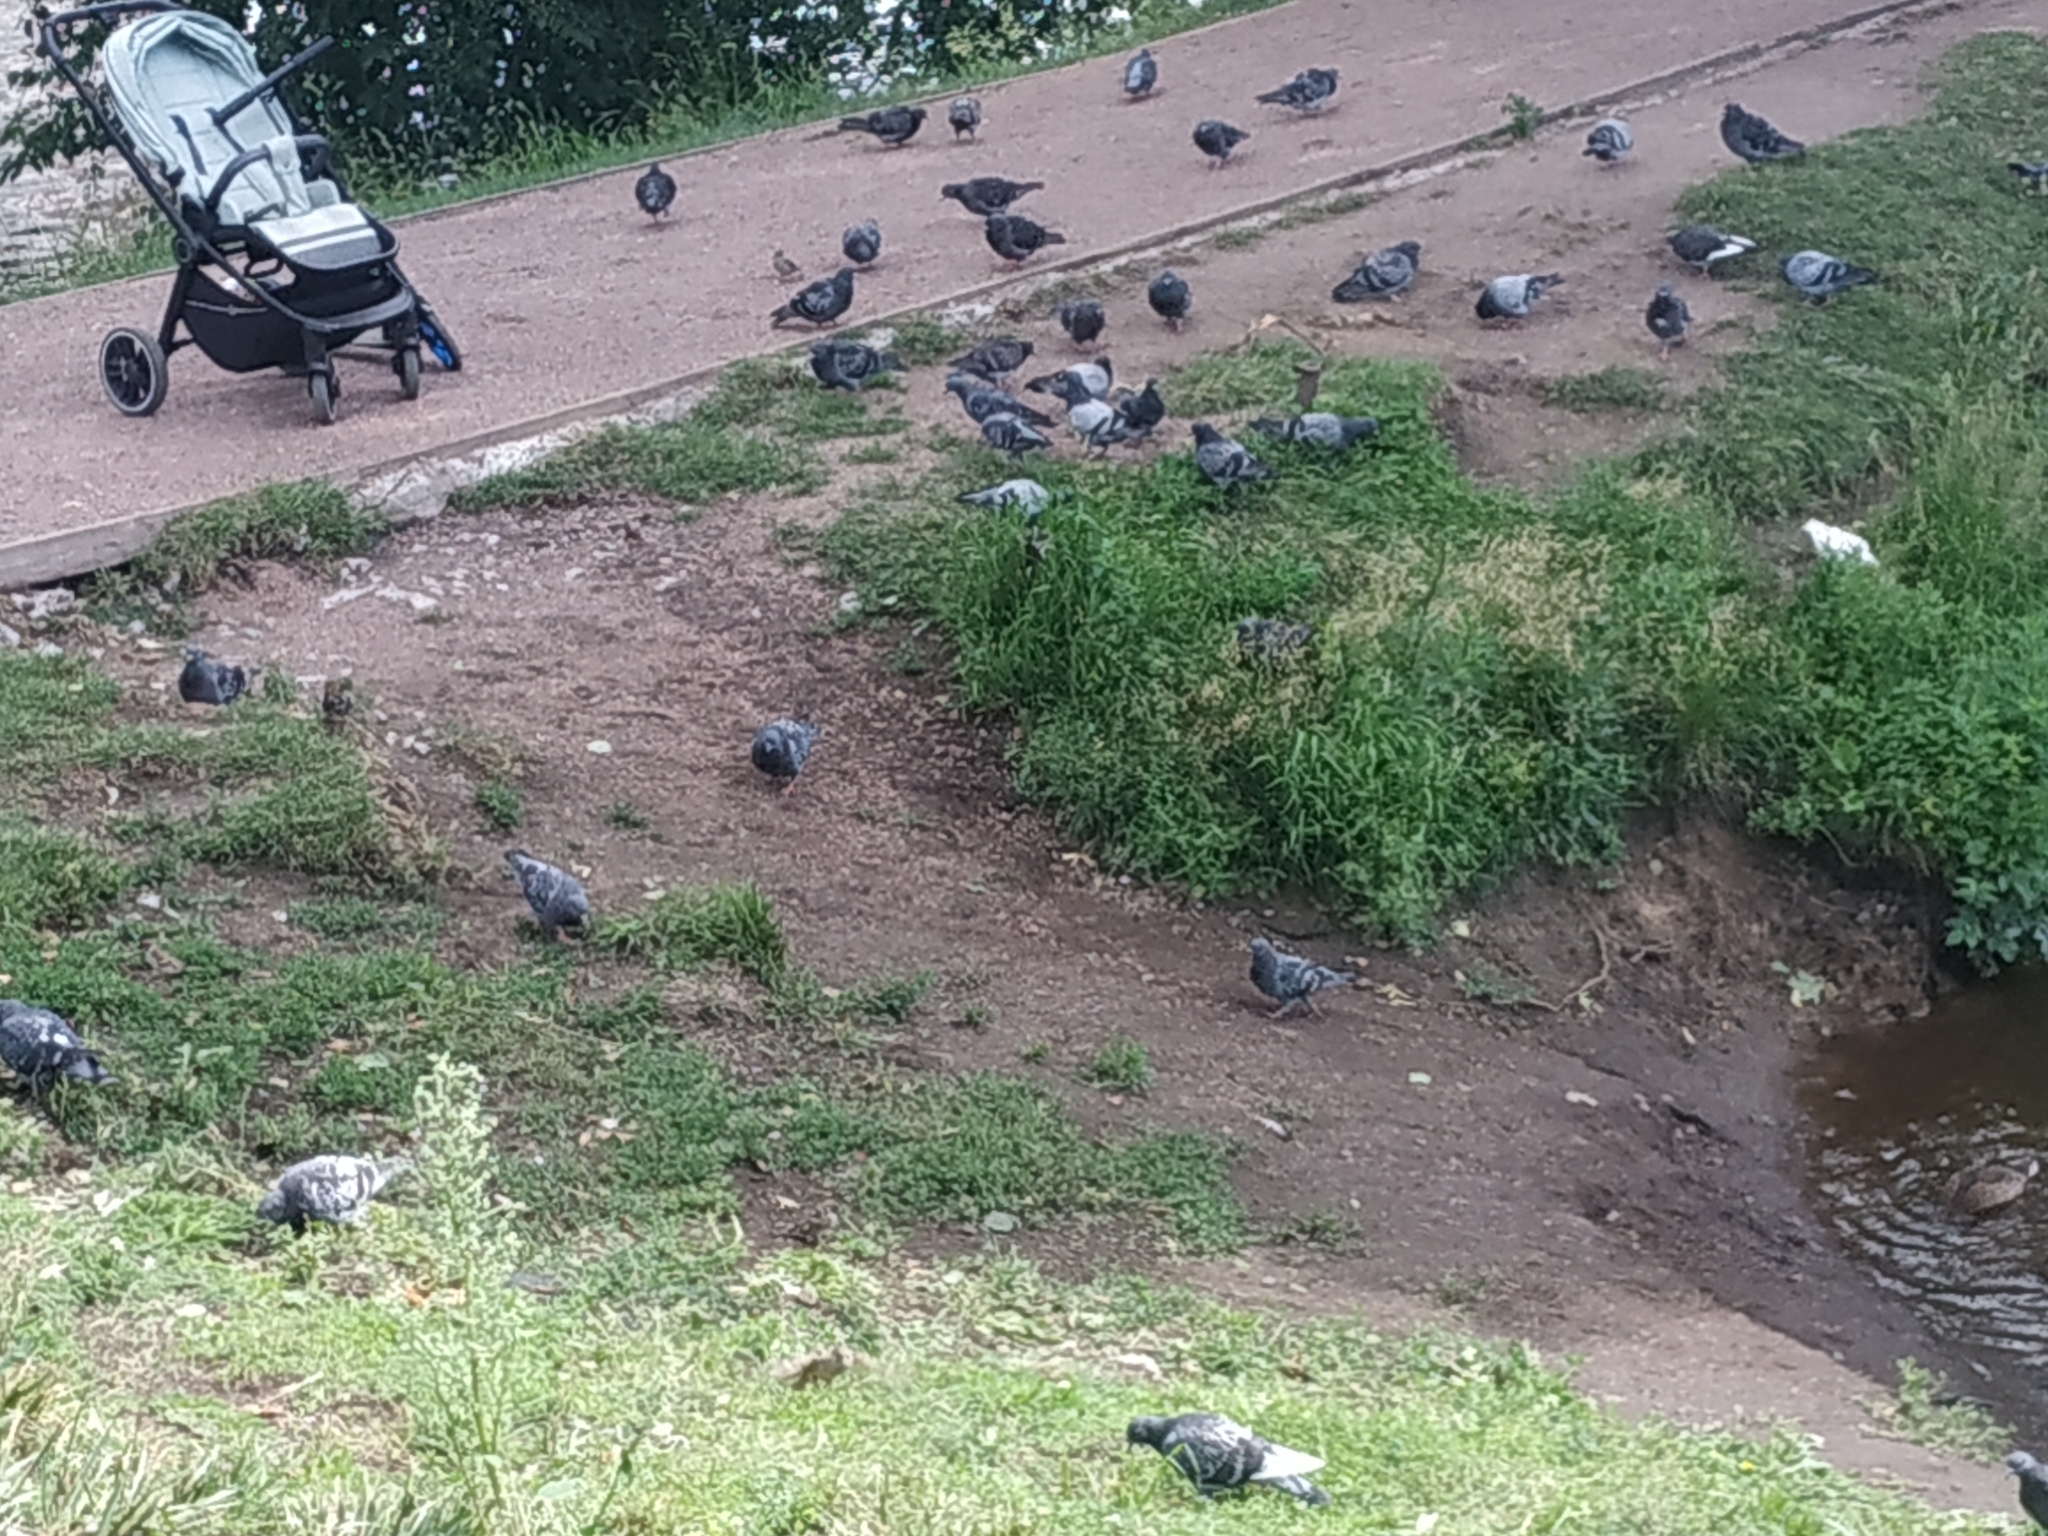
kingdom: Animalia
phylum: Chordata
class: Aves
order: Columbiformes
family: Columbidae
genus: Columba
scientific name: Columba livia
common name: Rock pigeon
